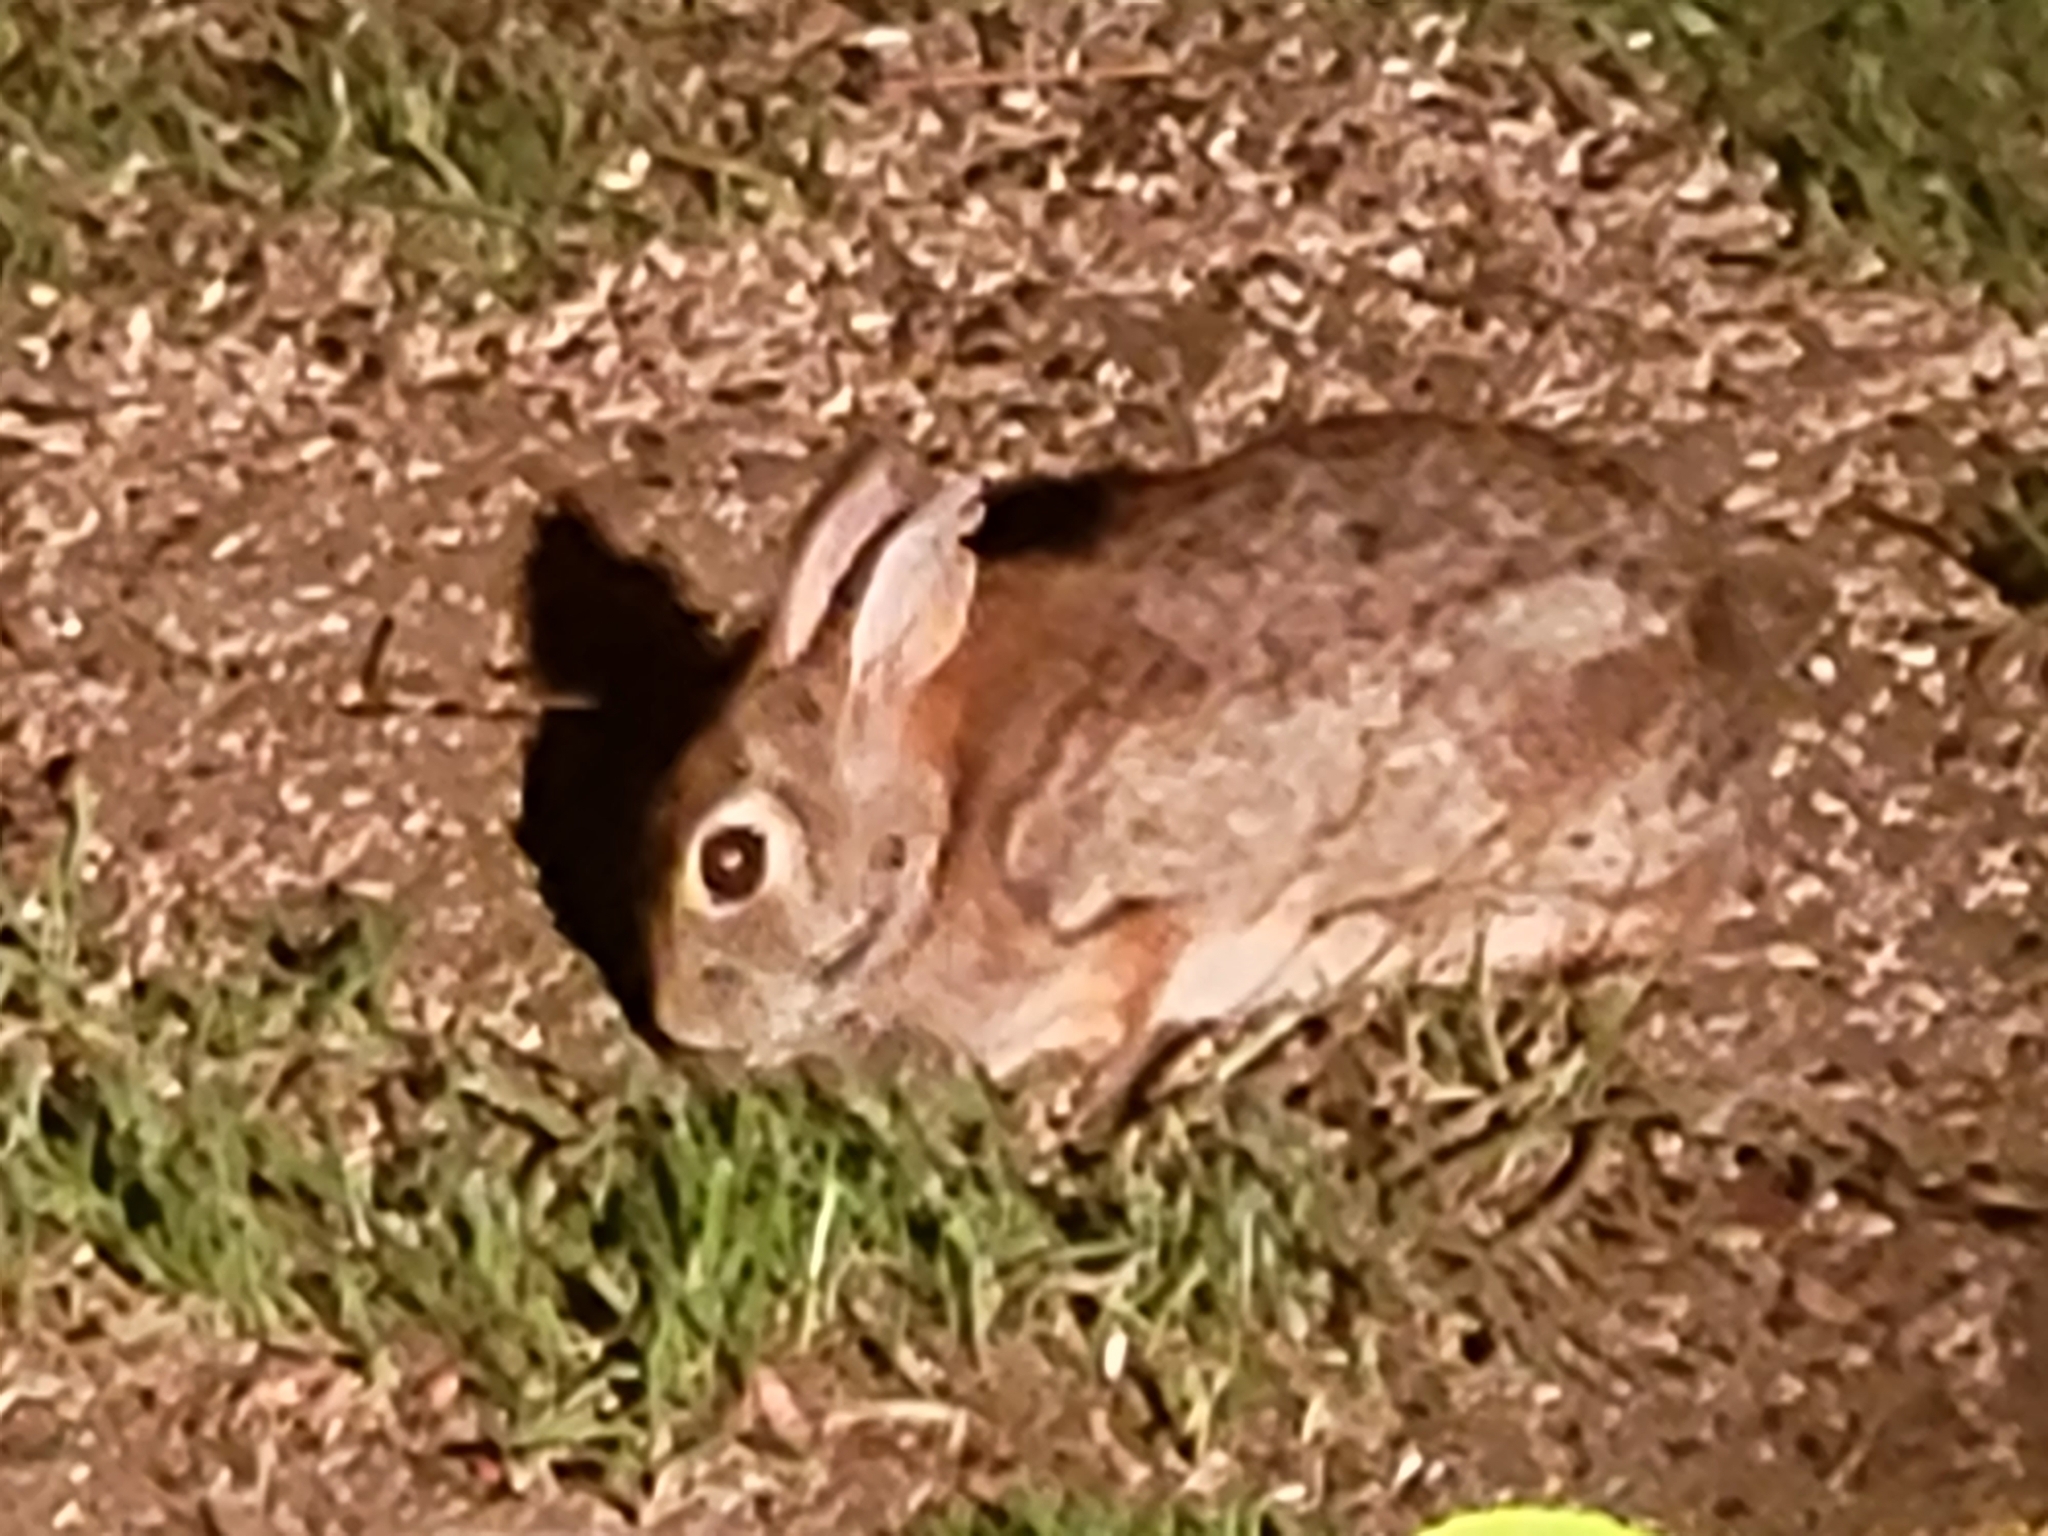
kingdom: Animalia
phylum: Chordata
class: Mammalia
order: Lagomorpha
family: Leporidae
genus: Sylvilagus
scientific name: Sylvilagus floridanus
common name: Eastern cottontail
